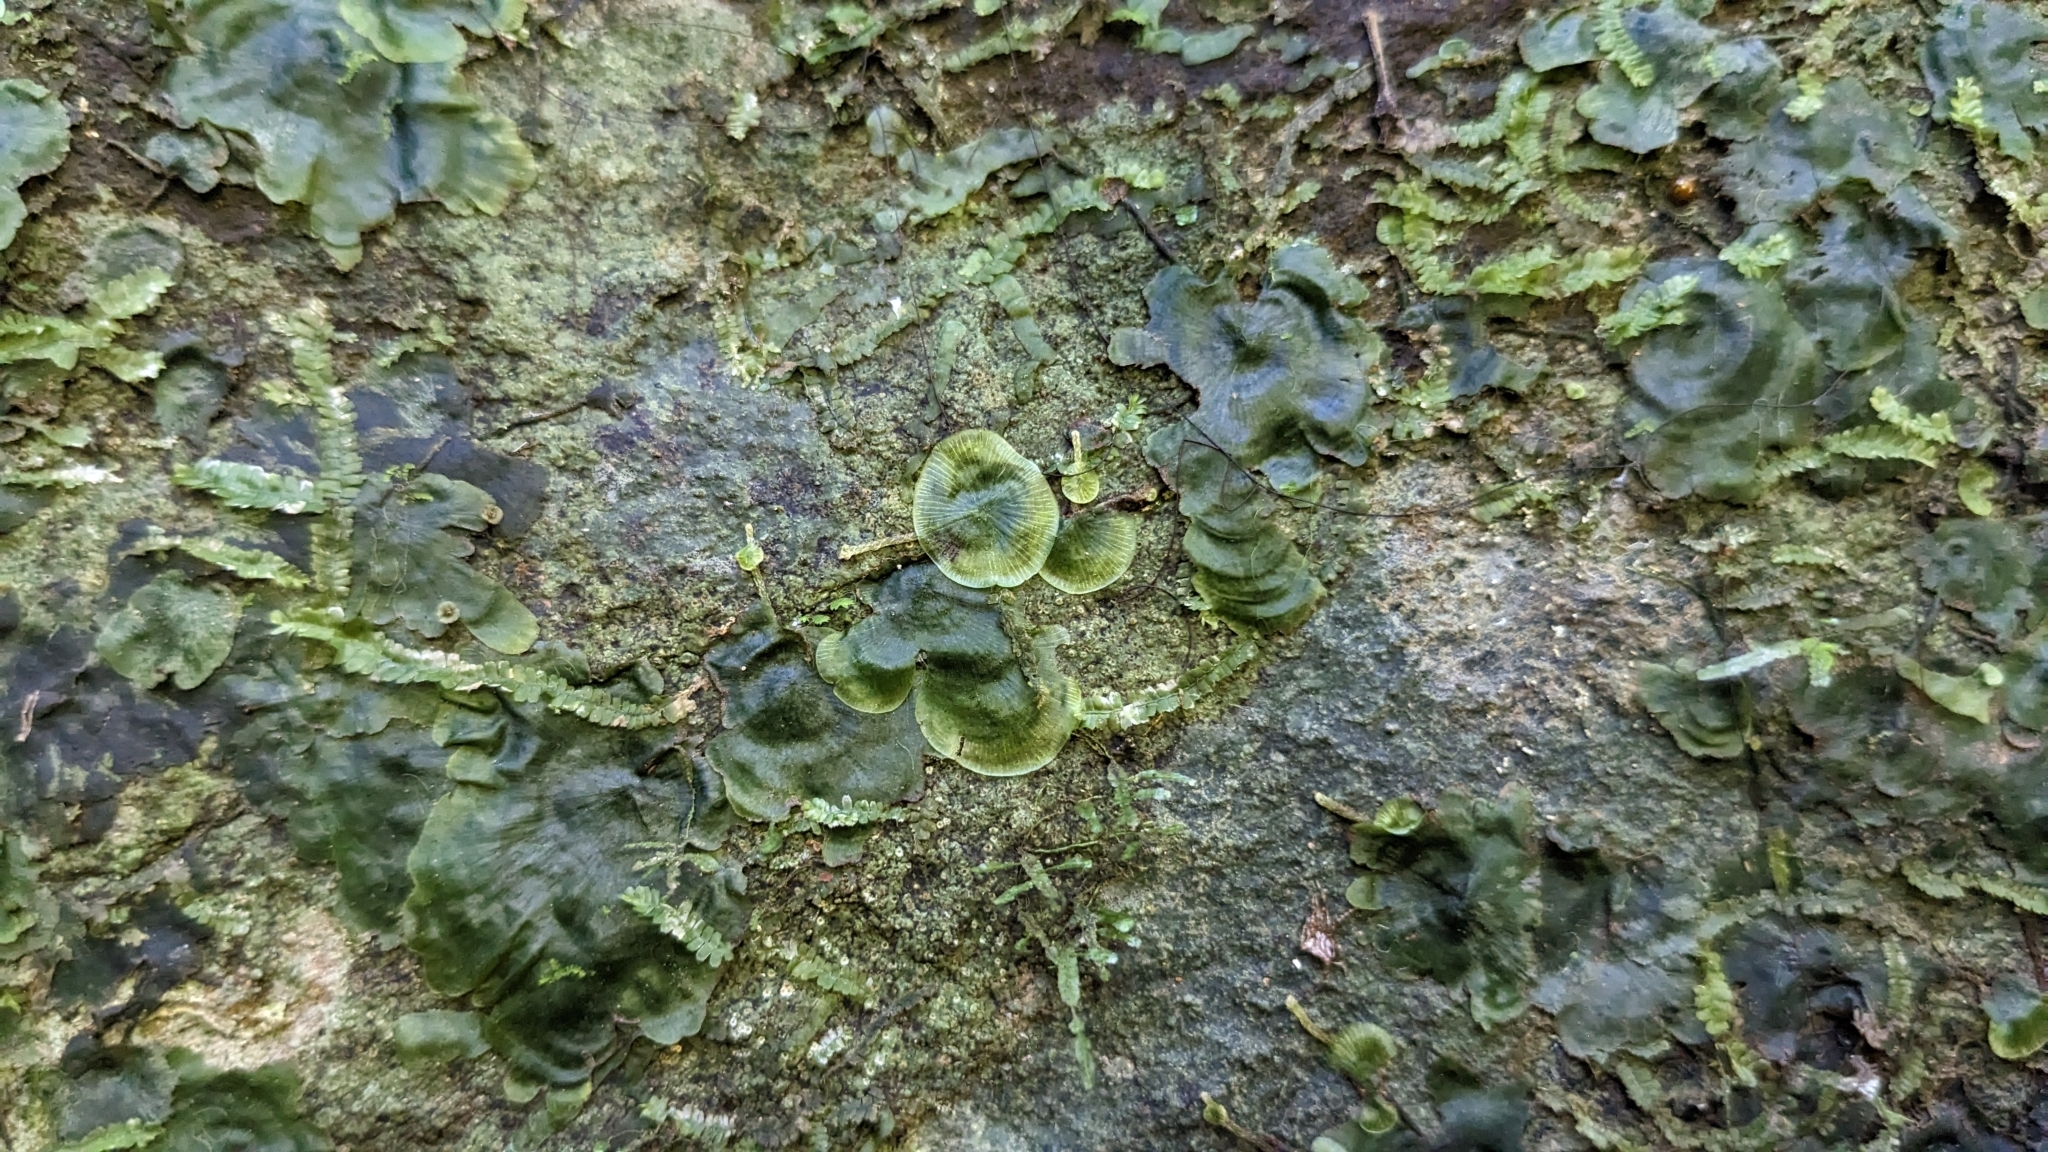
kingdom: Plantae
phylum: Tracheophyta
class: Polypodiopsida
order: Hymenophyllales
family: Hymenophyllaceae
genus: Didymoglossum
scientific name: Didymoglossum tahitense
